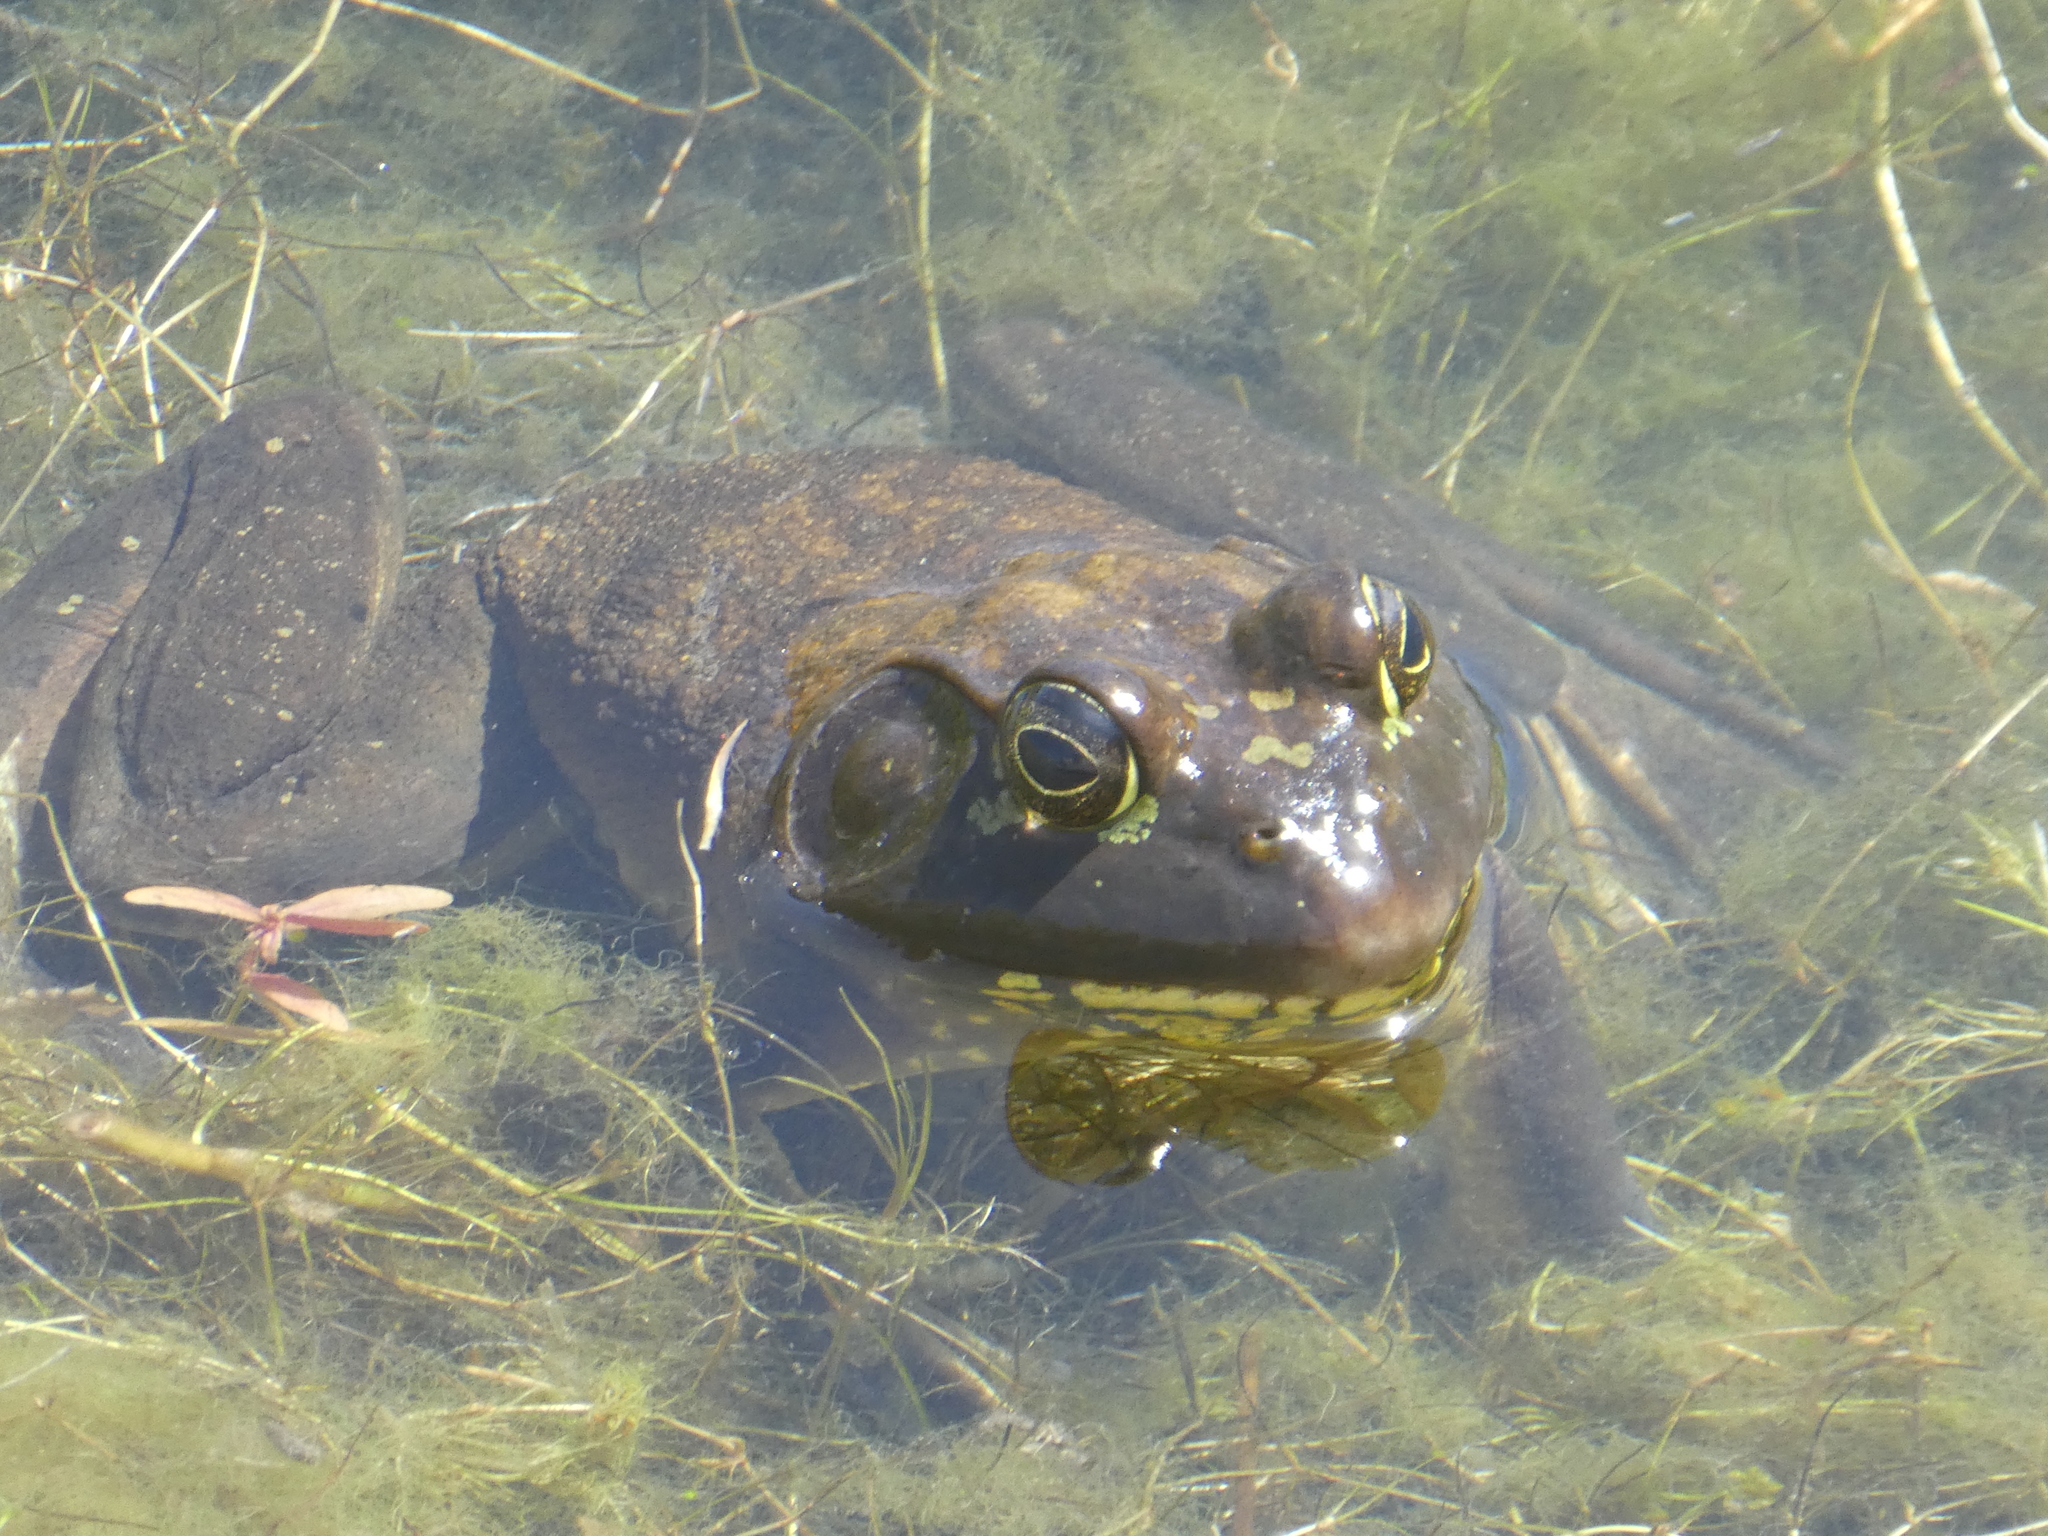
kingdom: Animalia
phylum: Chordata
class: Amphibia
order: Anura
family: Ranidae
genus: Lithobates
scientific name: Lithobates catesbeianus
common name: American bullfrog
